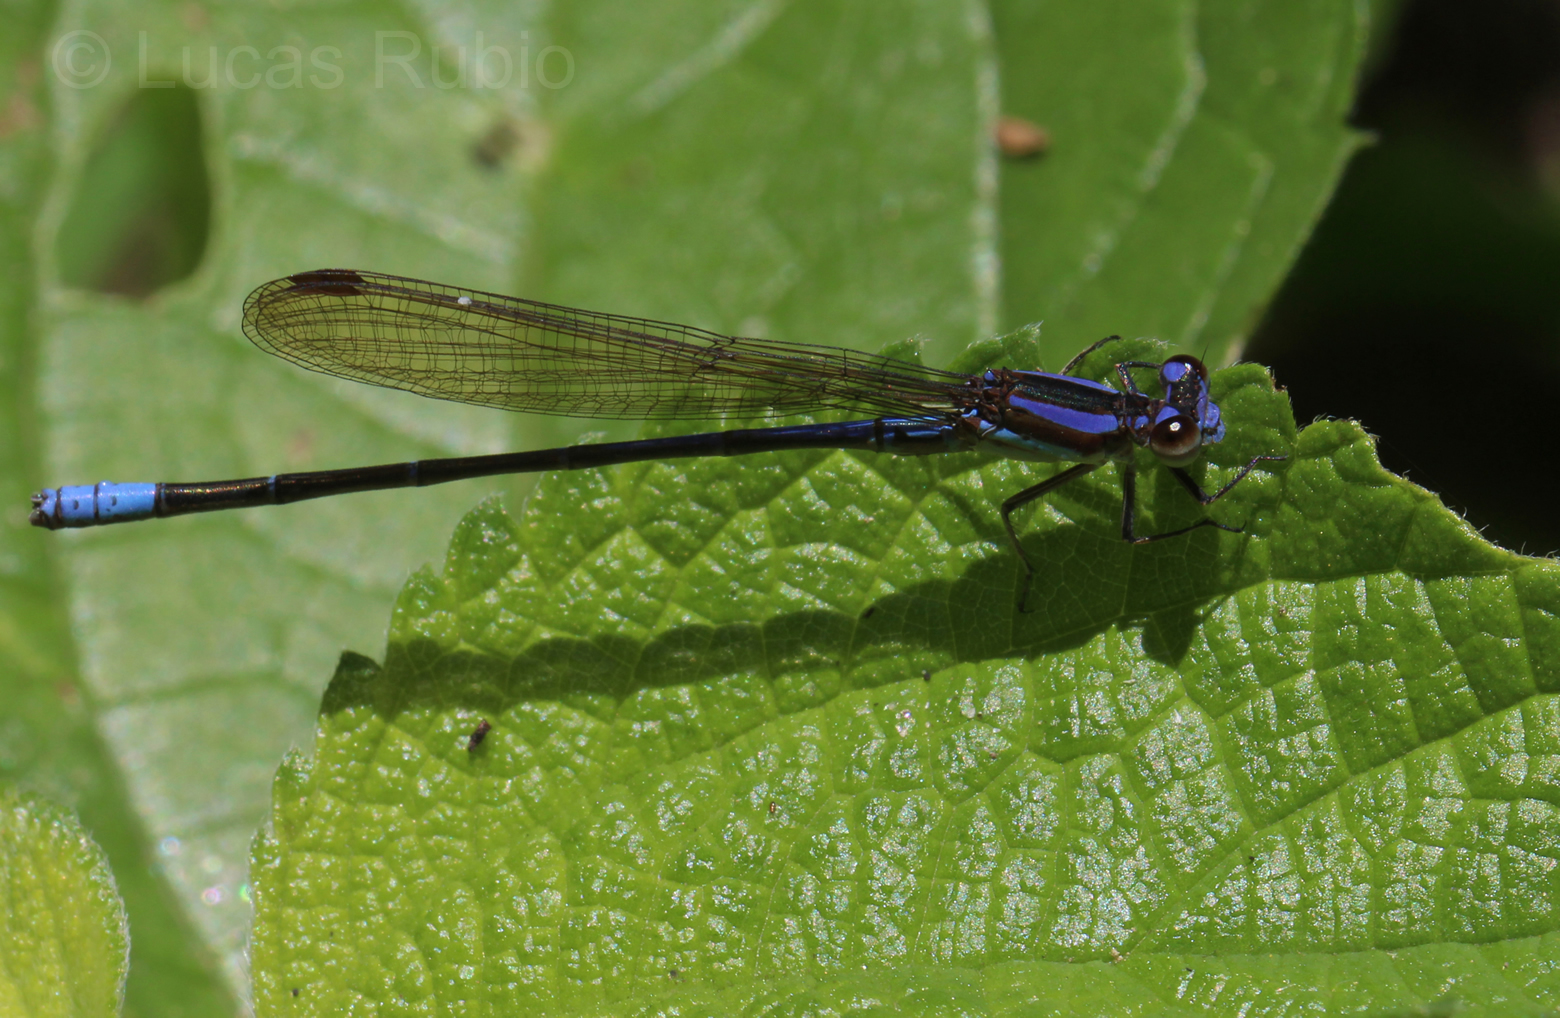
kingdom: Animalia
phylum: Arthropoda
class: Insecta
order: Odonata
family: Coenagrionidae
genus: Argia
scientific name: Argia jujuya
